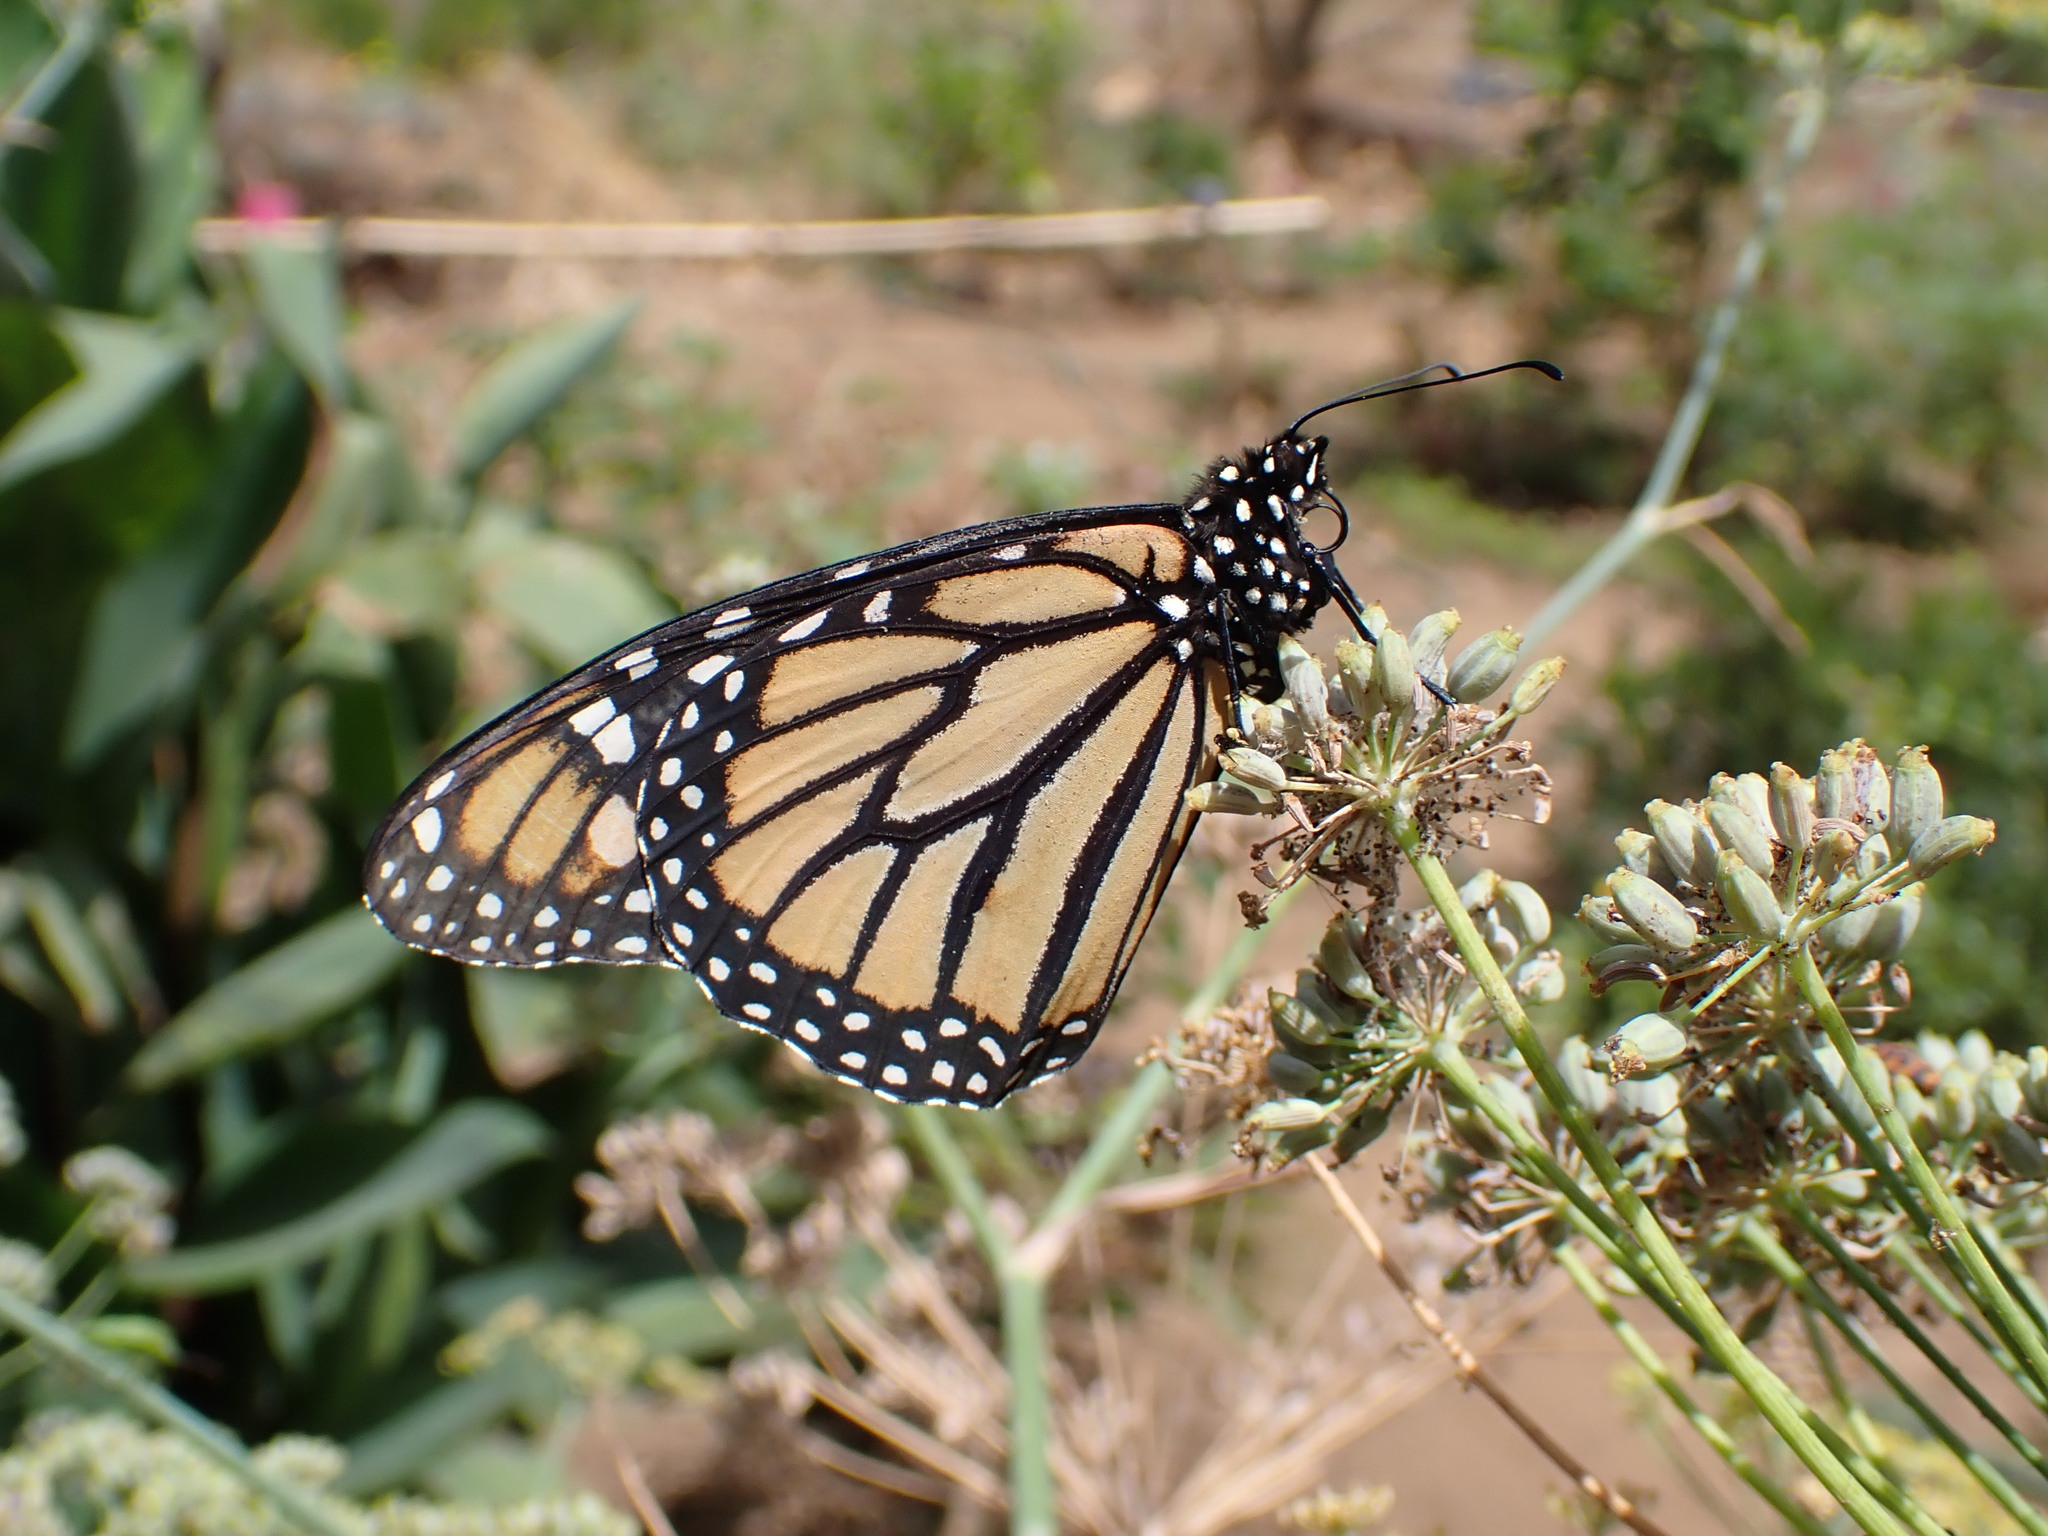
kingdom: Animalia
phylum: Arthropoda
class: Insecta
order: Lepidoptera
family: Nymphalidae
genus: Danaus
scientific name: Danaus plexippus
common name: Monarch
